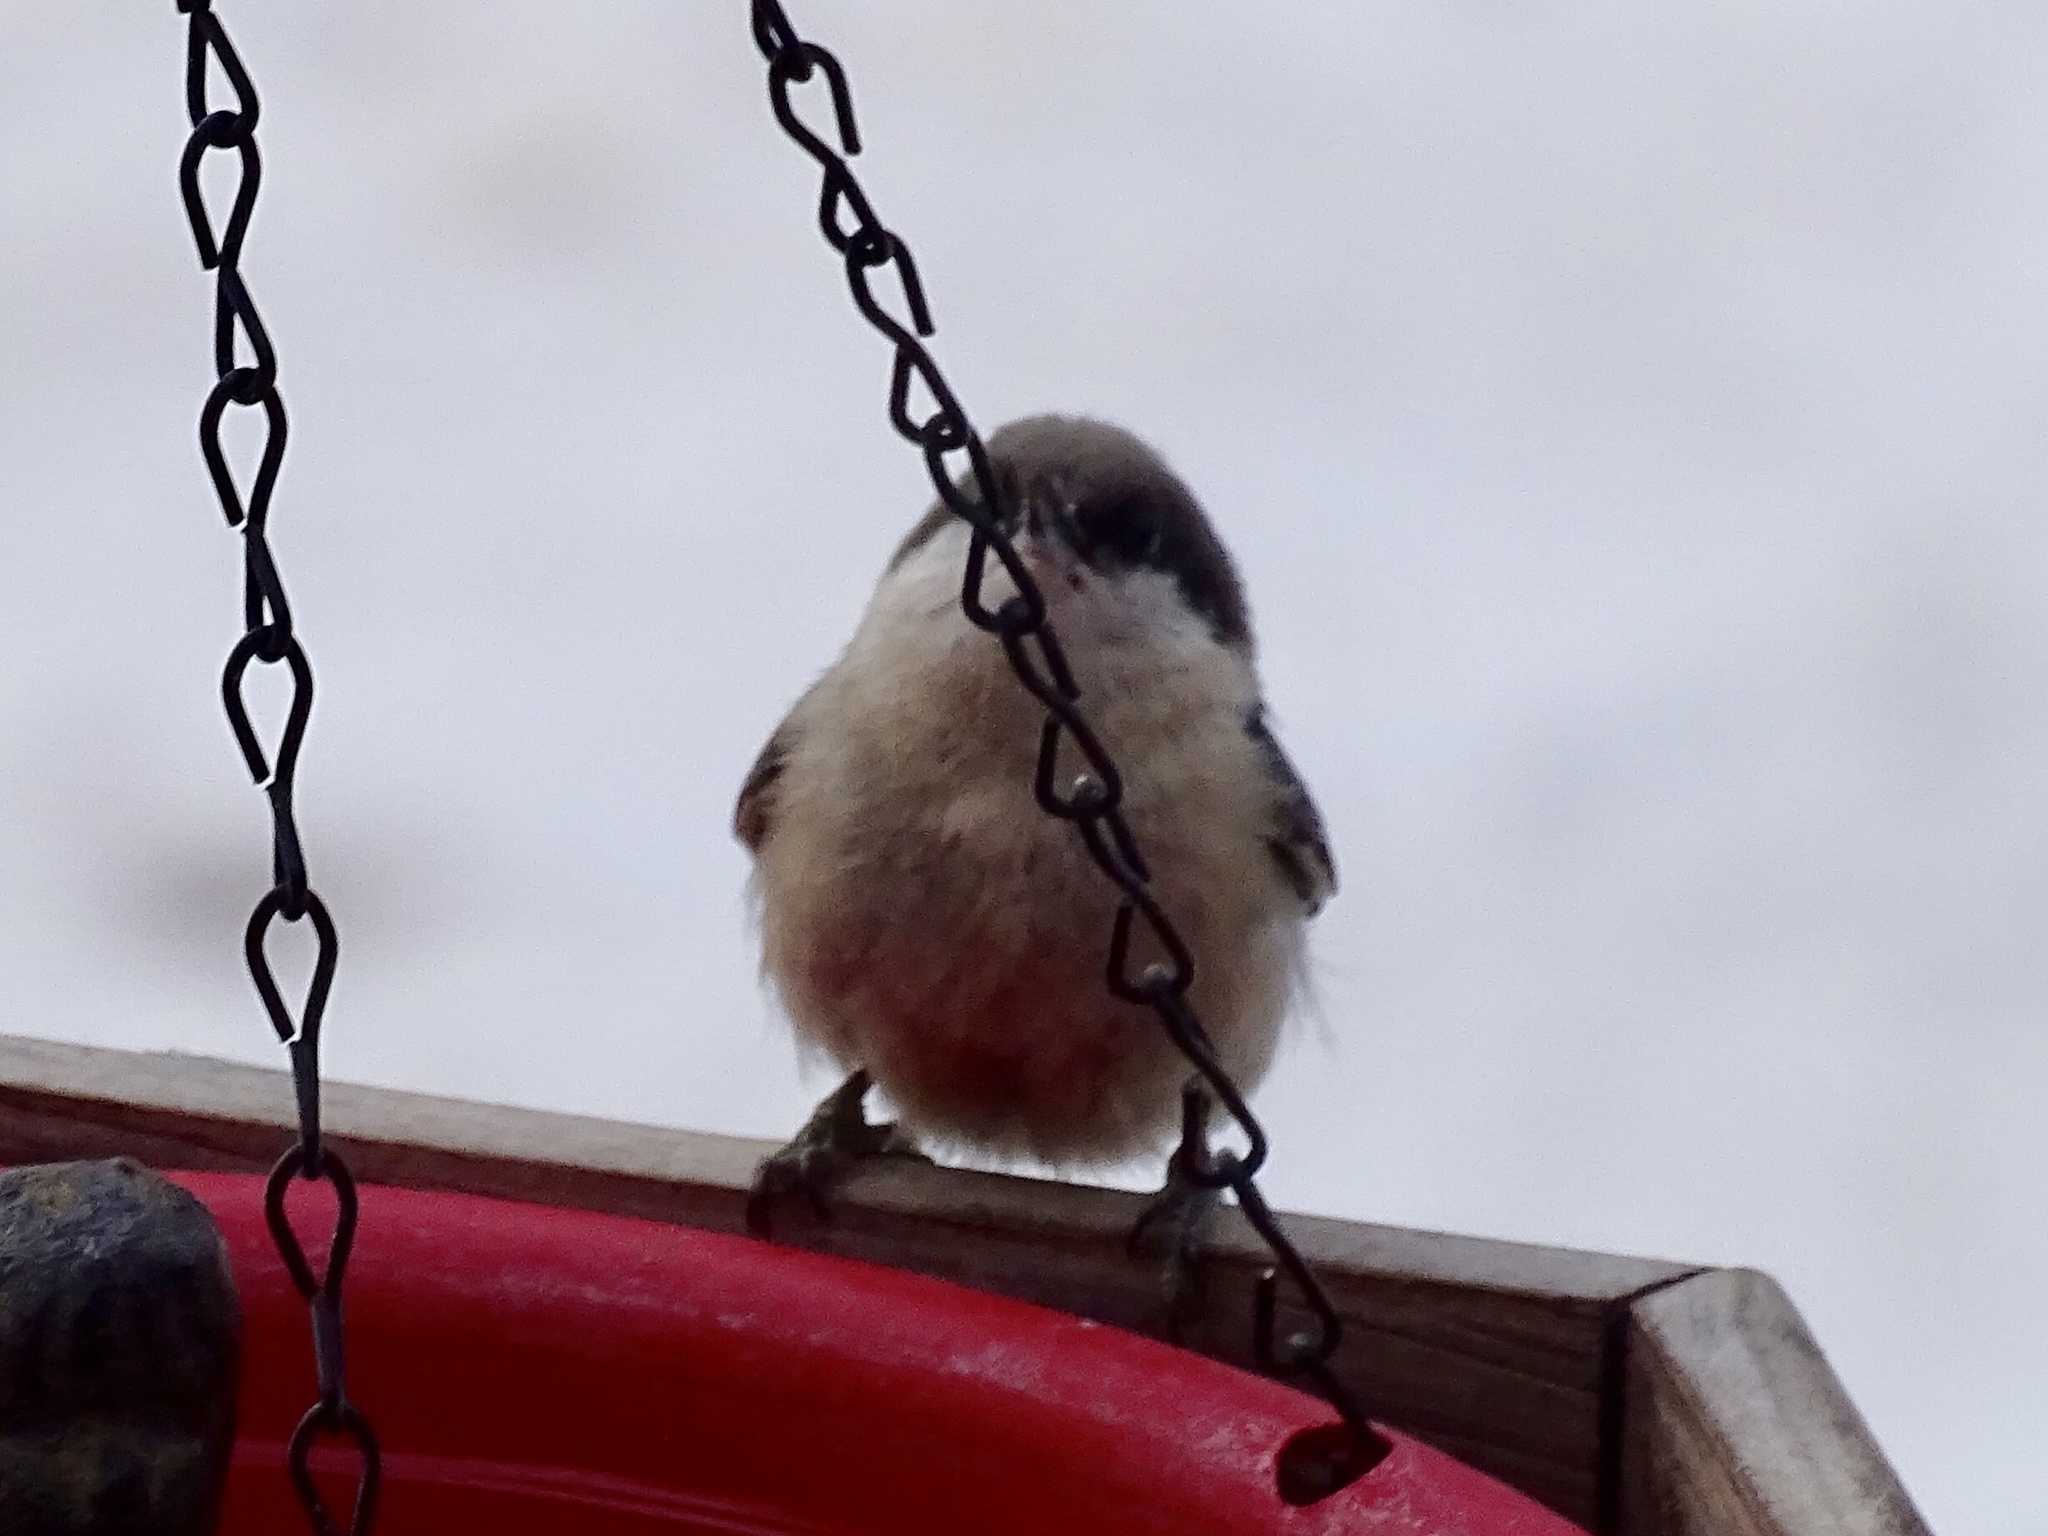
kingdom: Animalia
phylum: Chordata
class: Aves
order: Passeriformes
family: Sittidae
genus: Sitta
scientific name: Sitta pygmaea
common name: Pygmy nuthatch
